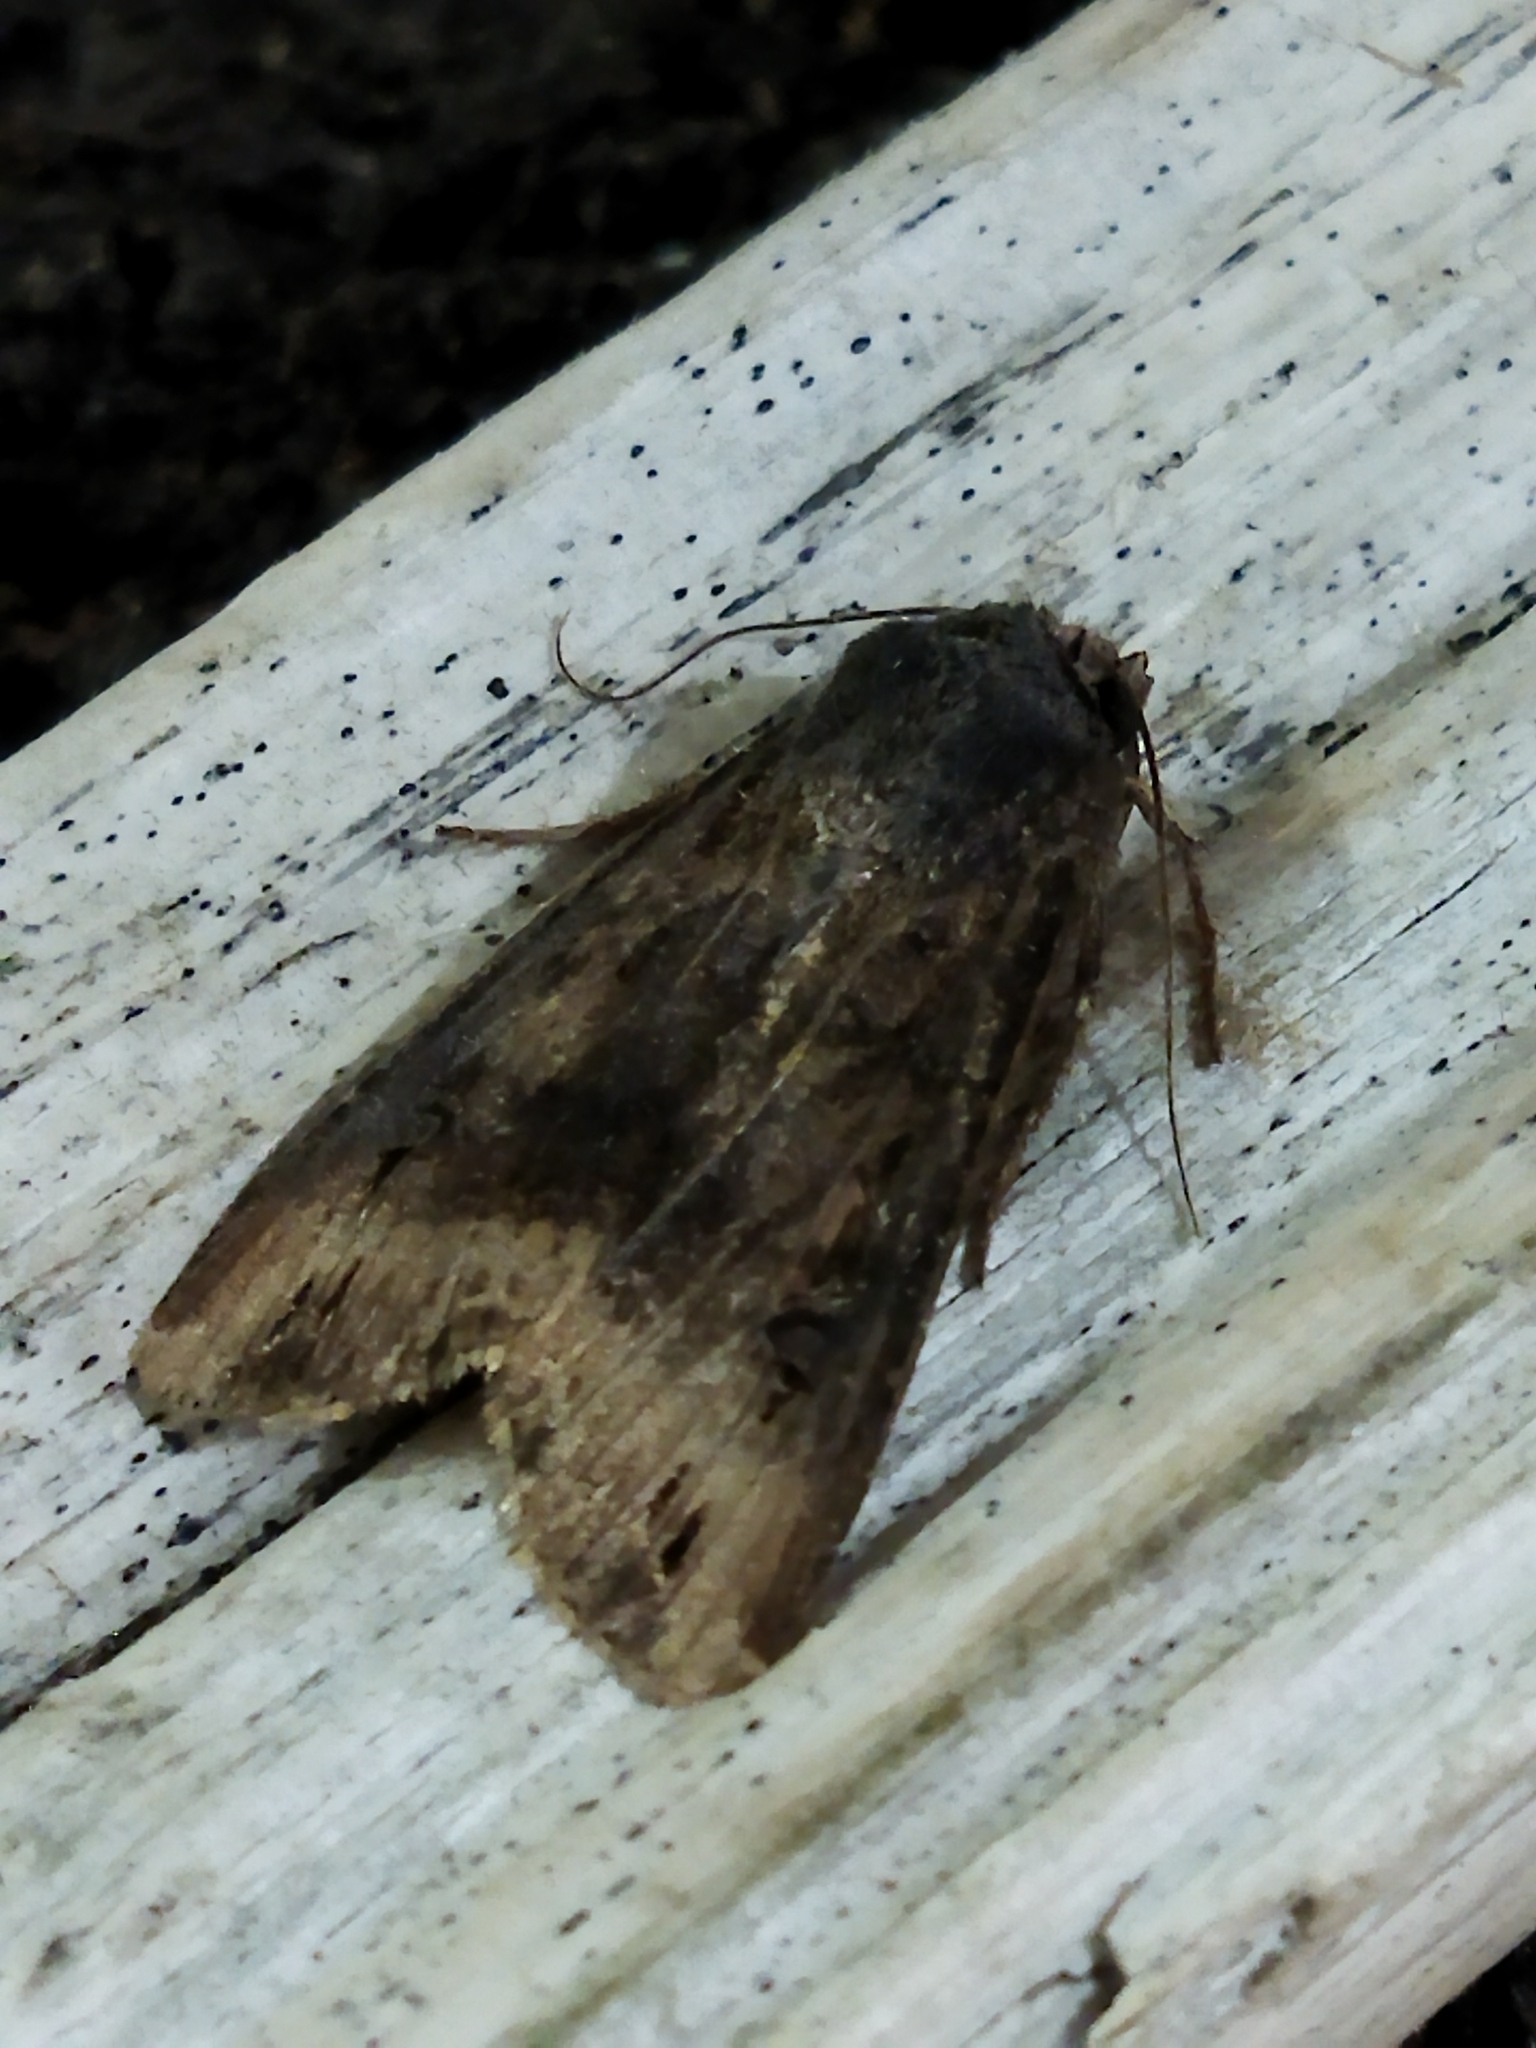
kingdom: Animalia
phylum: Arthropoda
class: Insecta
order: Lepidoptera
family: Noctuidae
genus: Agrotis
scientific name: Agrotis ipsilon
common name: Dark sword-grass
